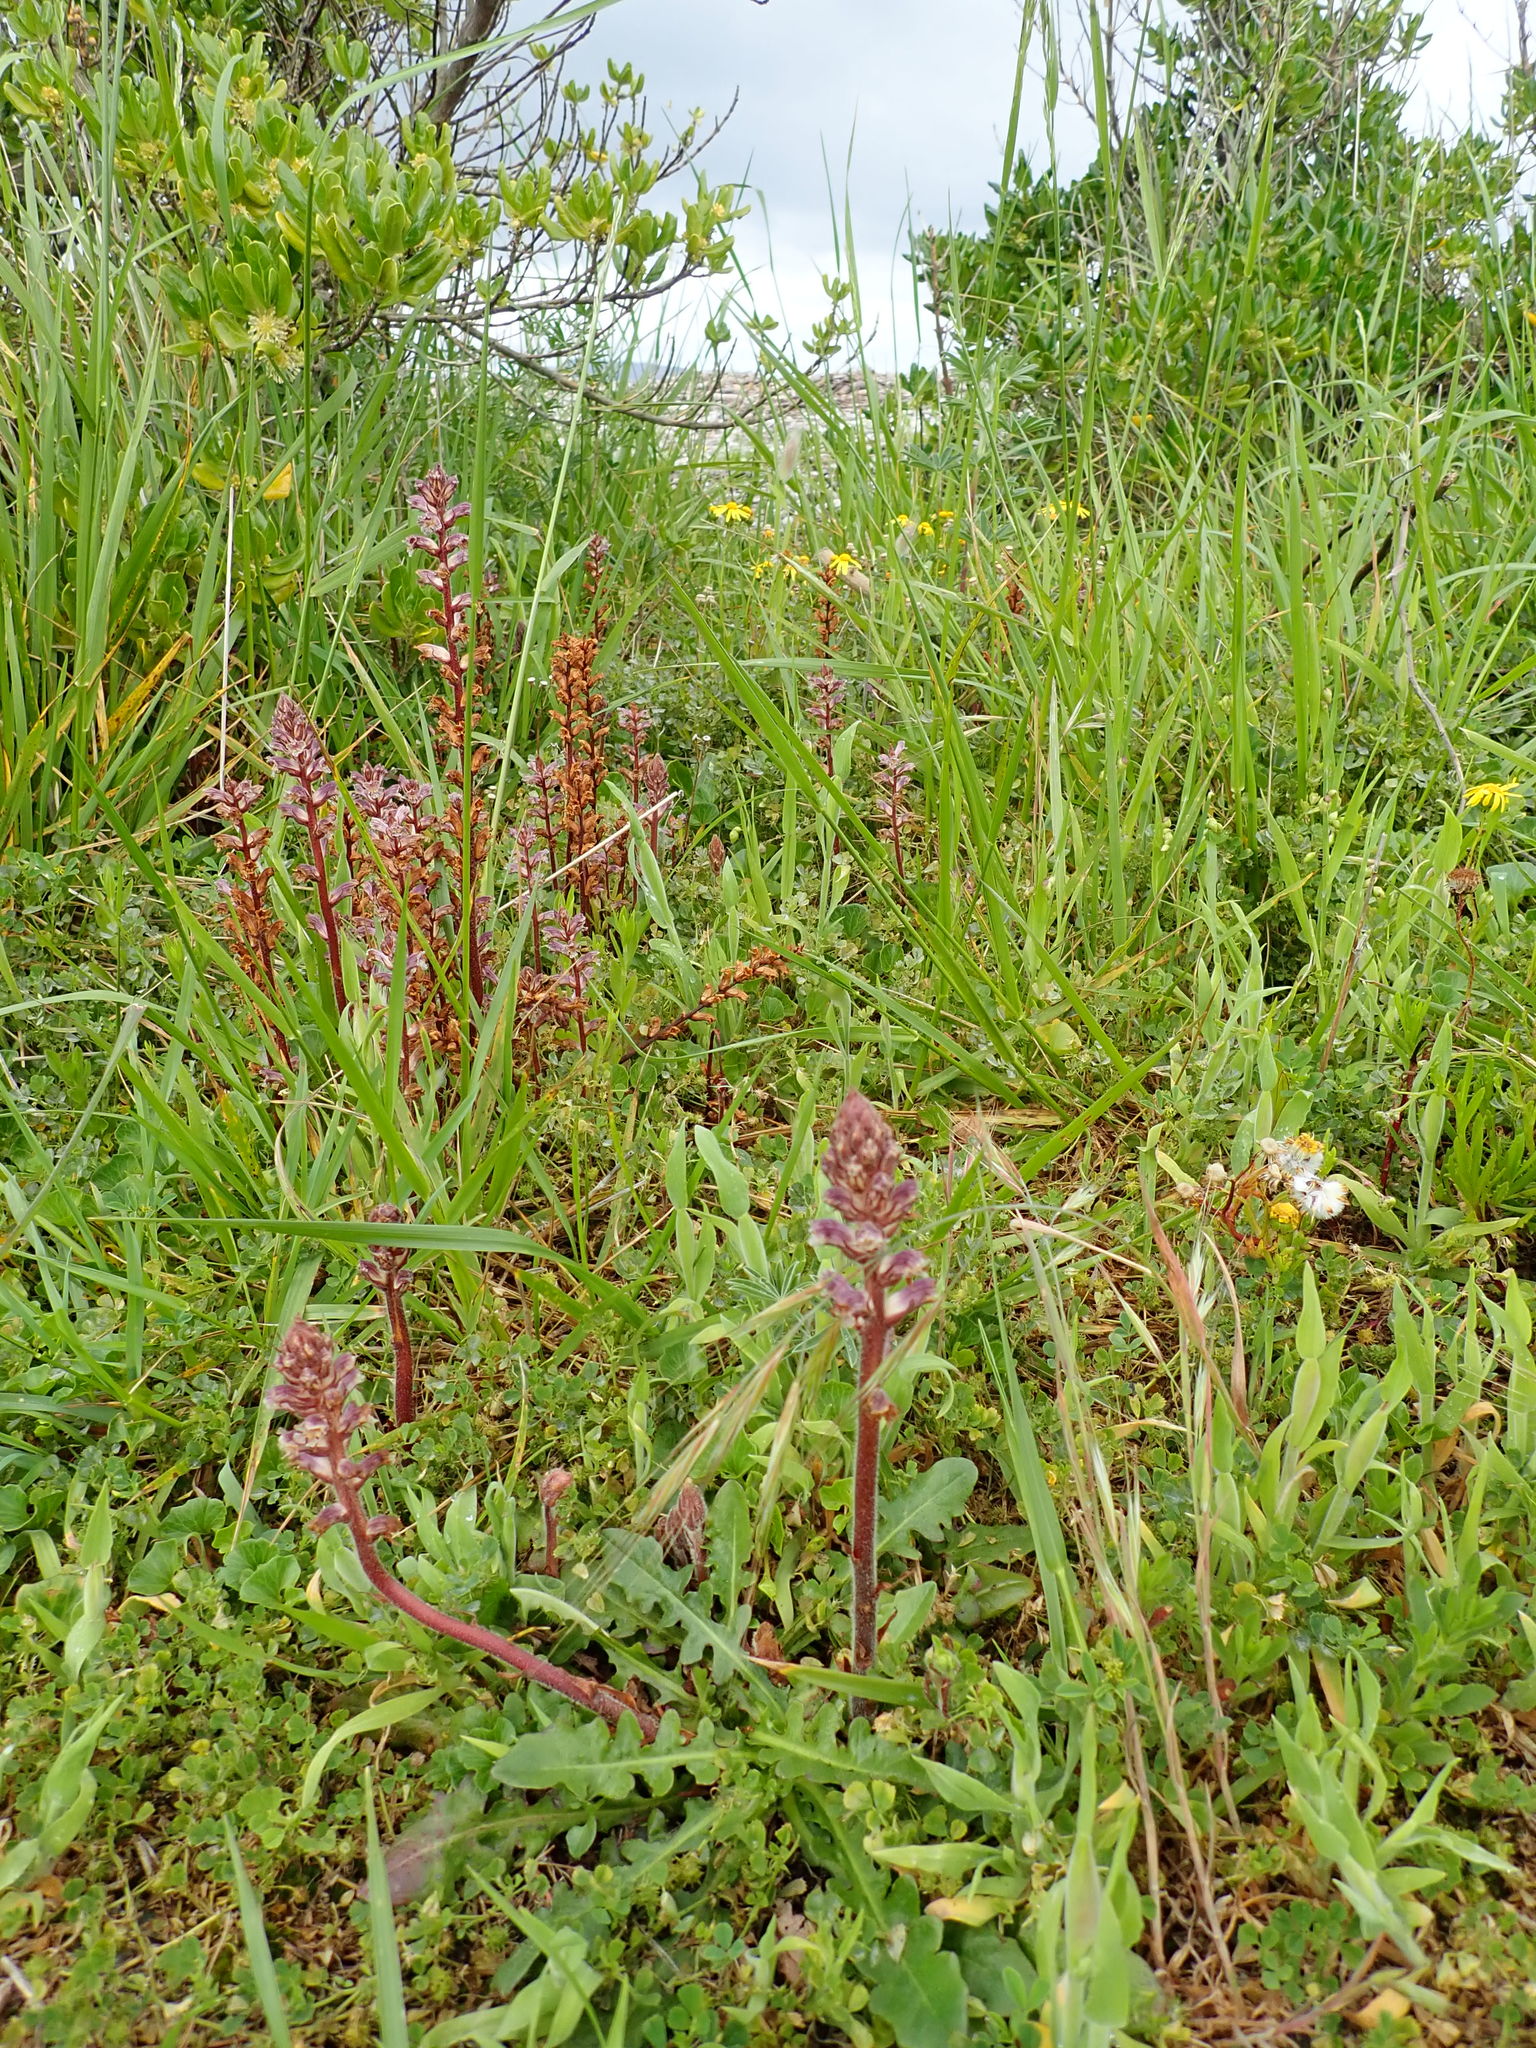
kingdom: Plantae
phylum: Tracheophyta
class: Magnoliopsida
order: Lamiales
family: Orobanchaceae
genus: Orobanche
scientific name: Orobanche minor
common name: Common broomrape
